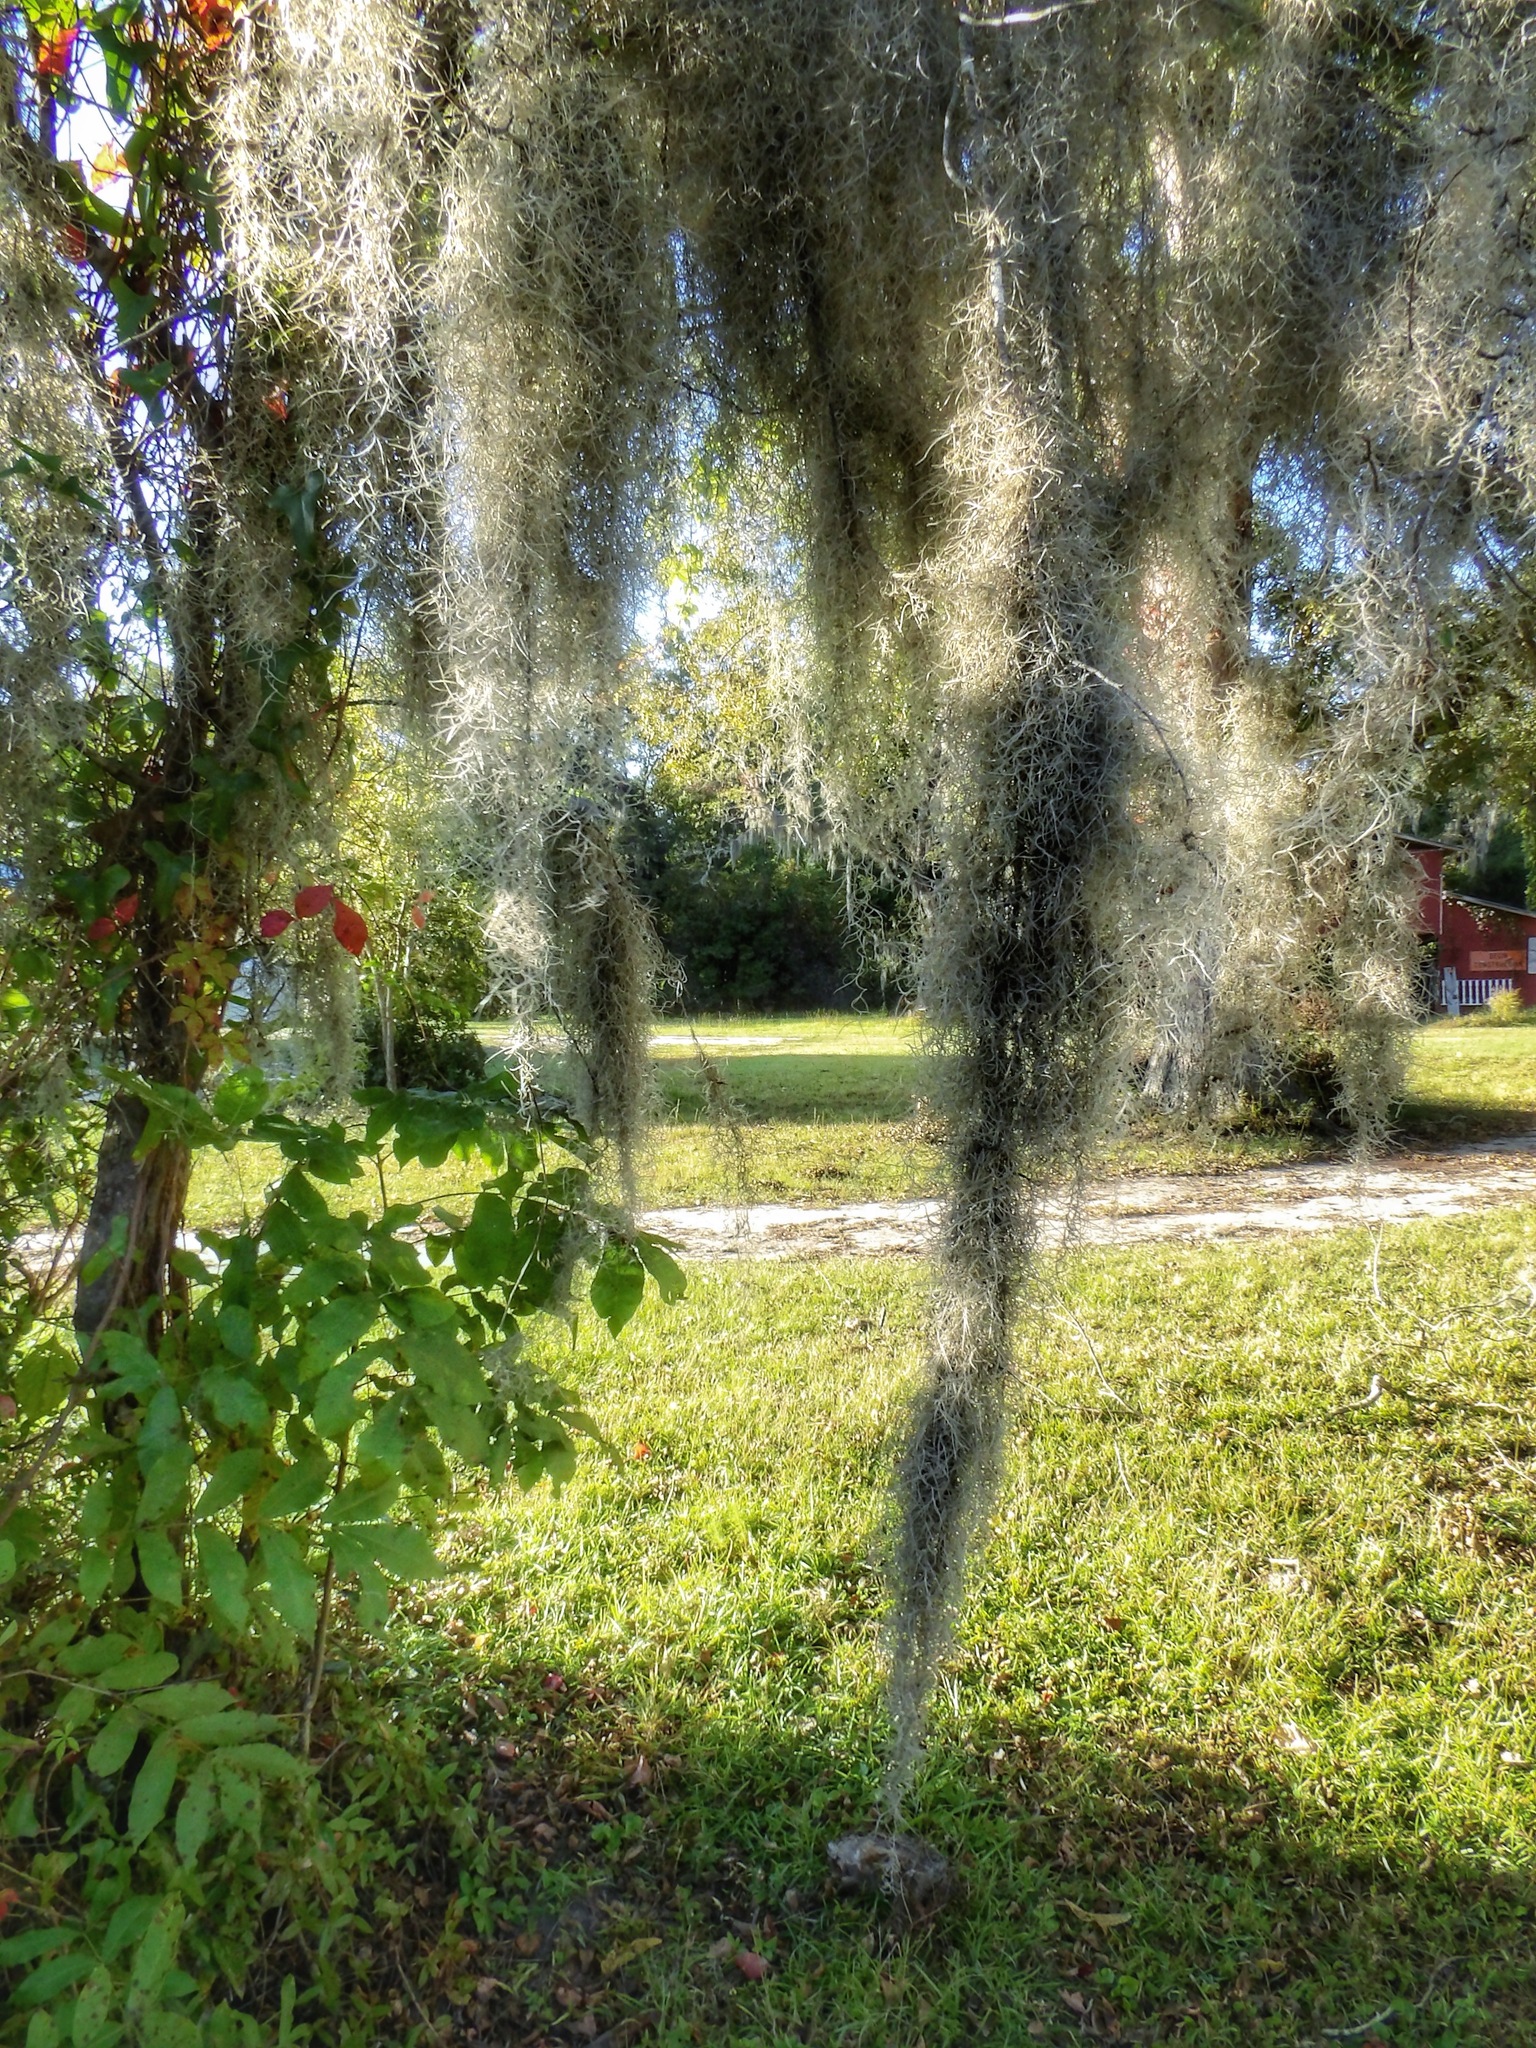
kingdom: Plantae
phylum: Tracheophyta
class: Liliopsida
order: Poales
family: Bromeliaceae
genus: Tillandsia
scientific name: Tillandsia usneoides
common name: Spanish moss
